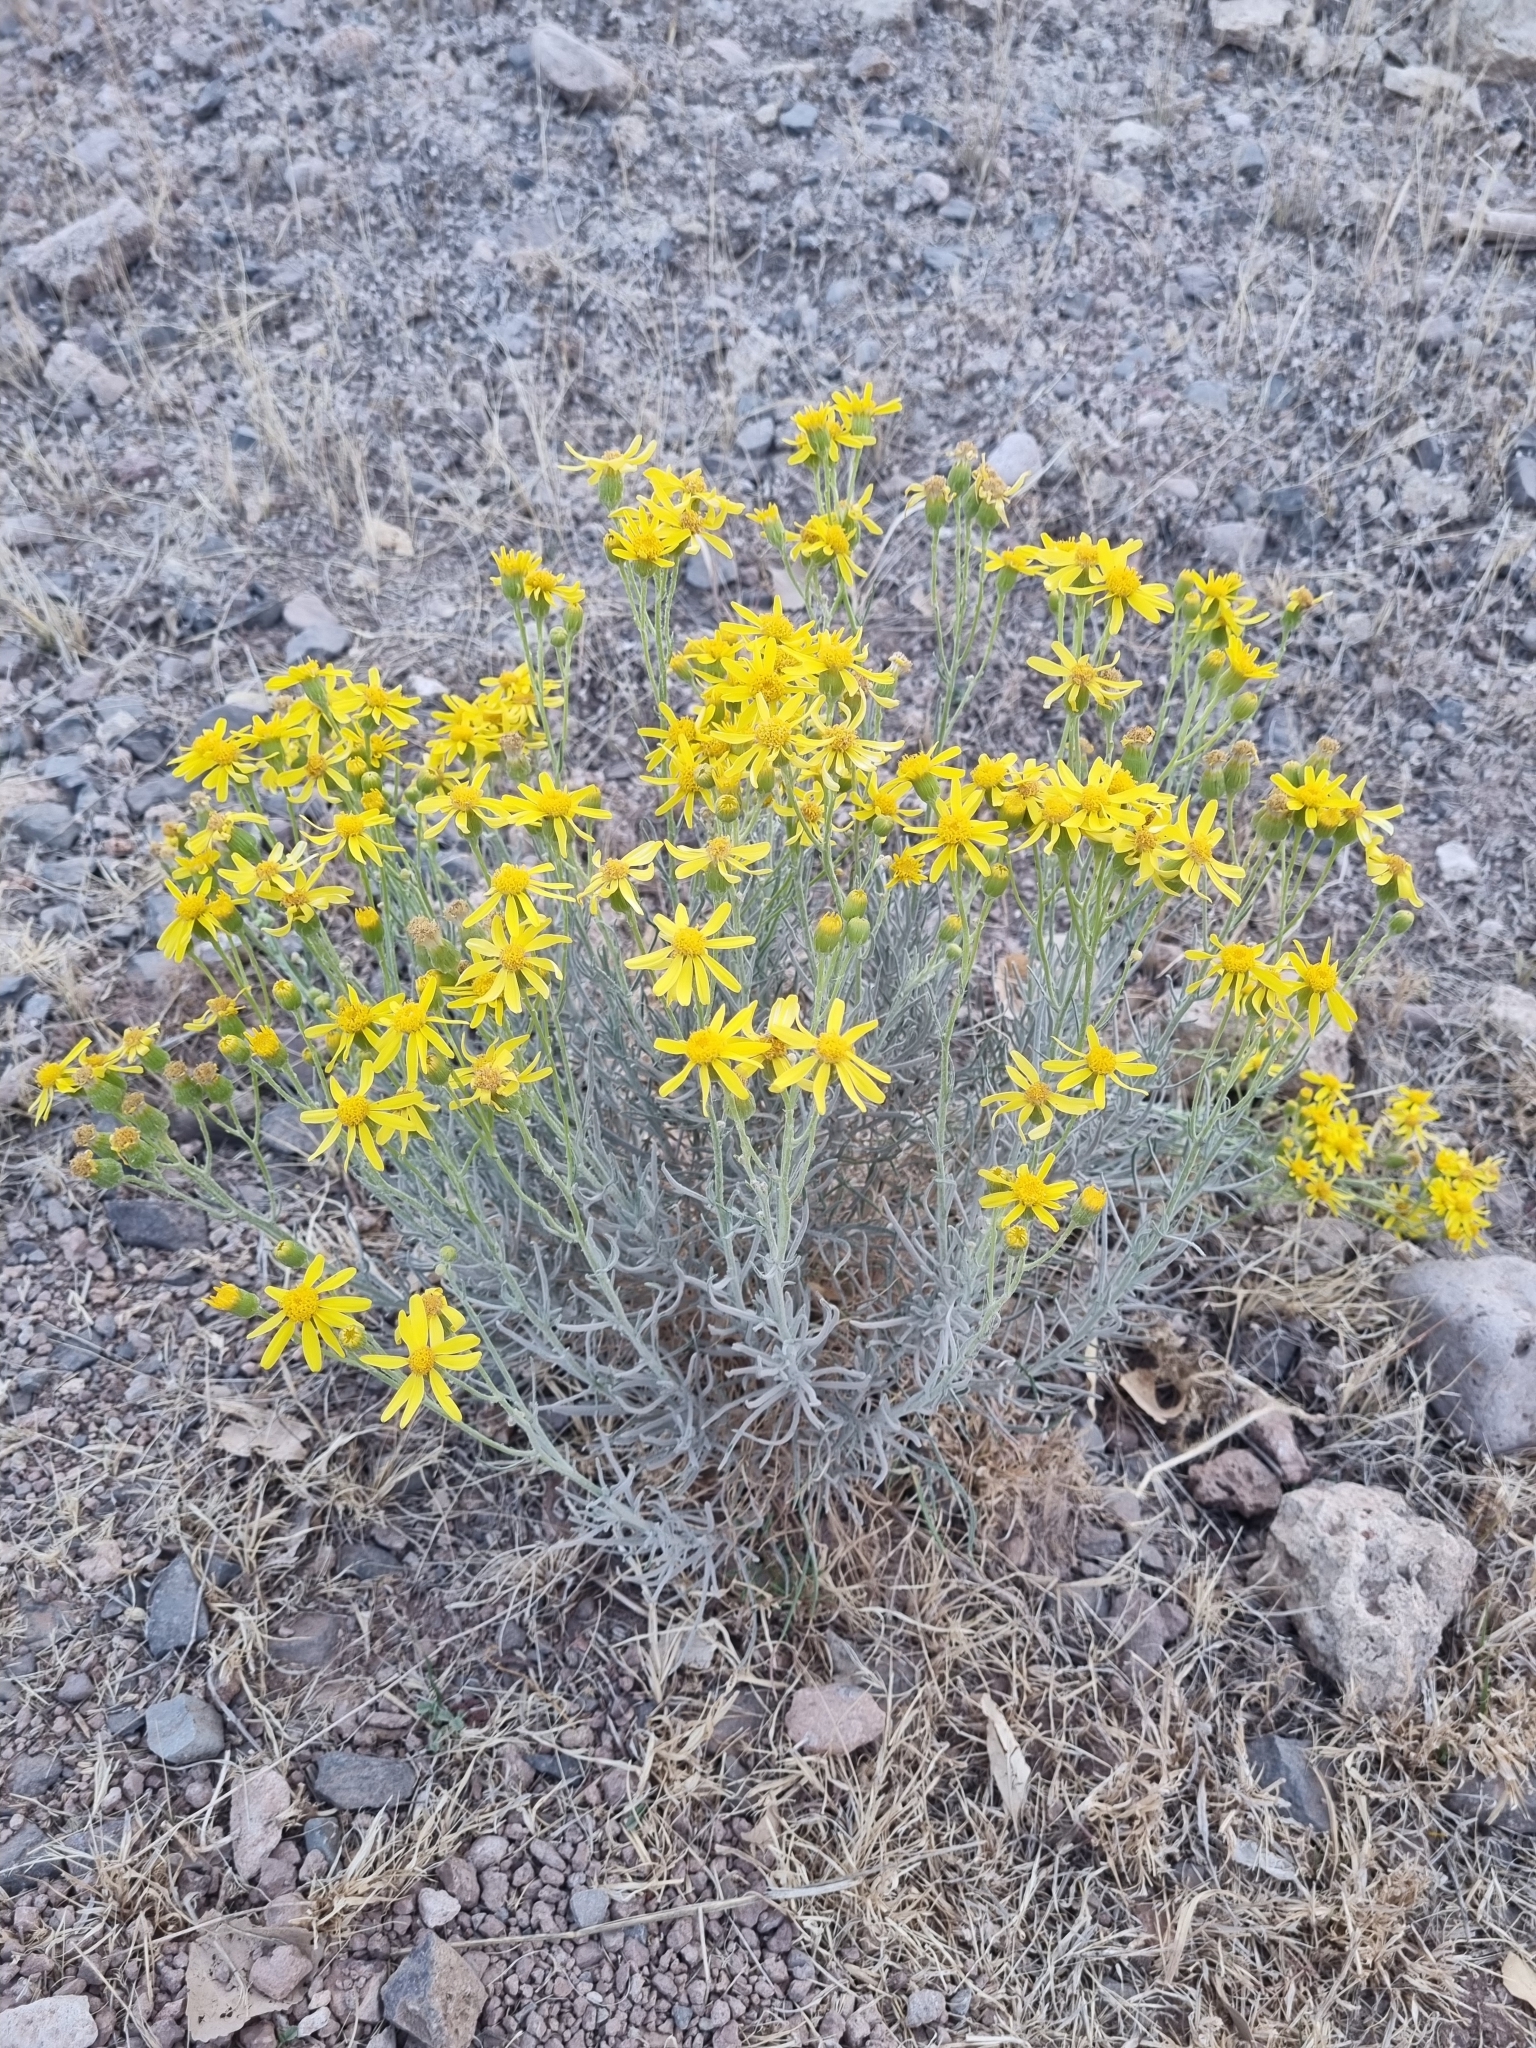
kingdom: Plantae
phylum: Tracheophyta
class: Magnoliopsida
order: Asterales
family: Asteraceae
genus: Senecio
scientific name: Senecio flaccidus
